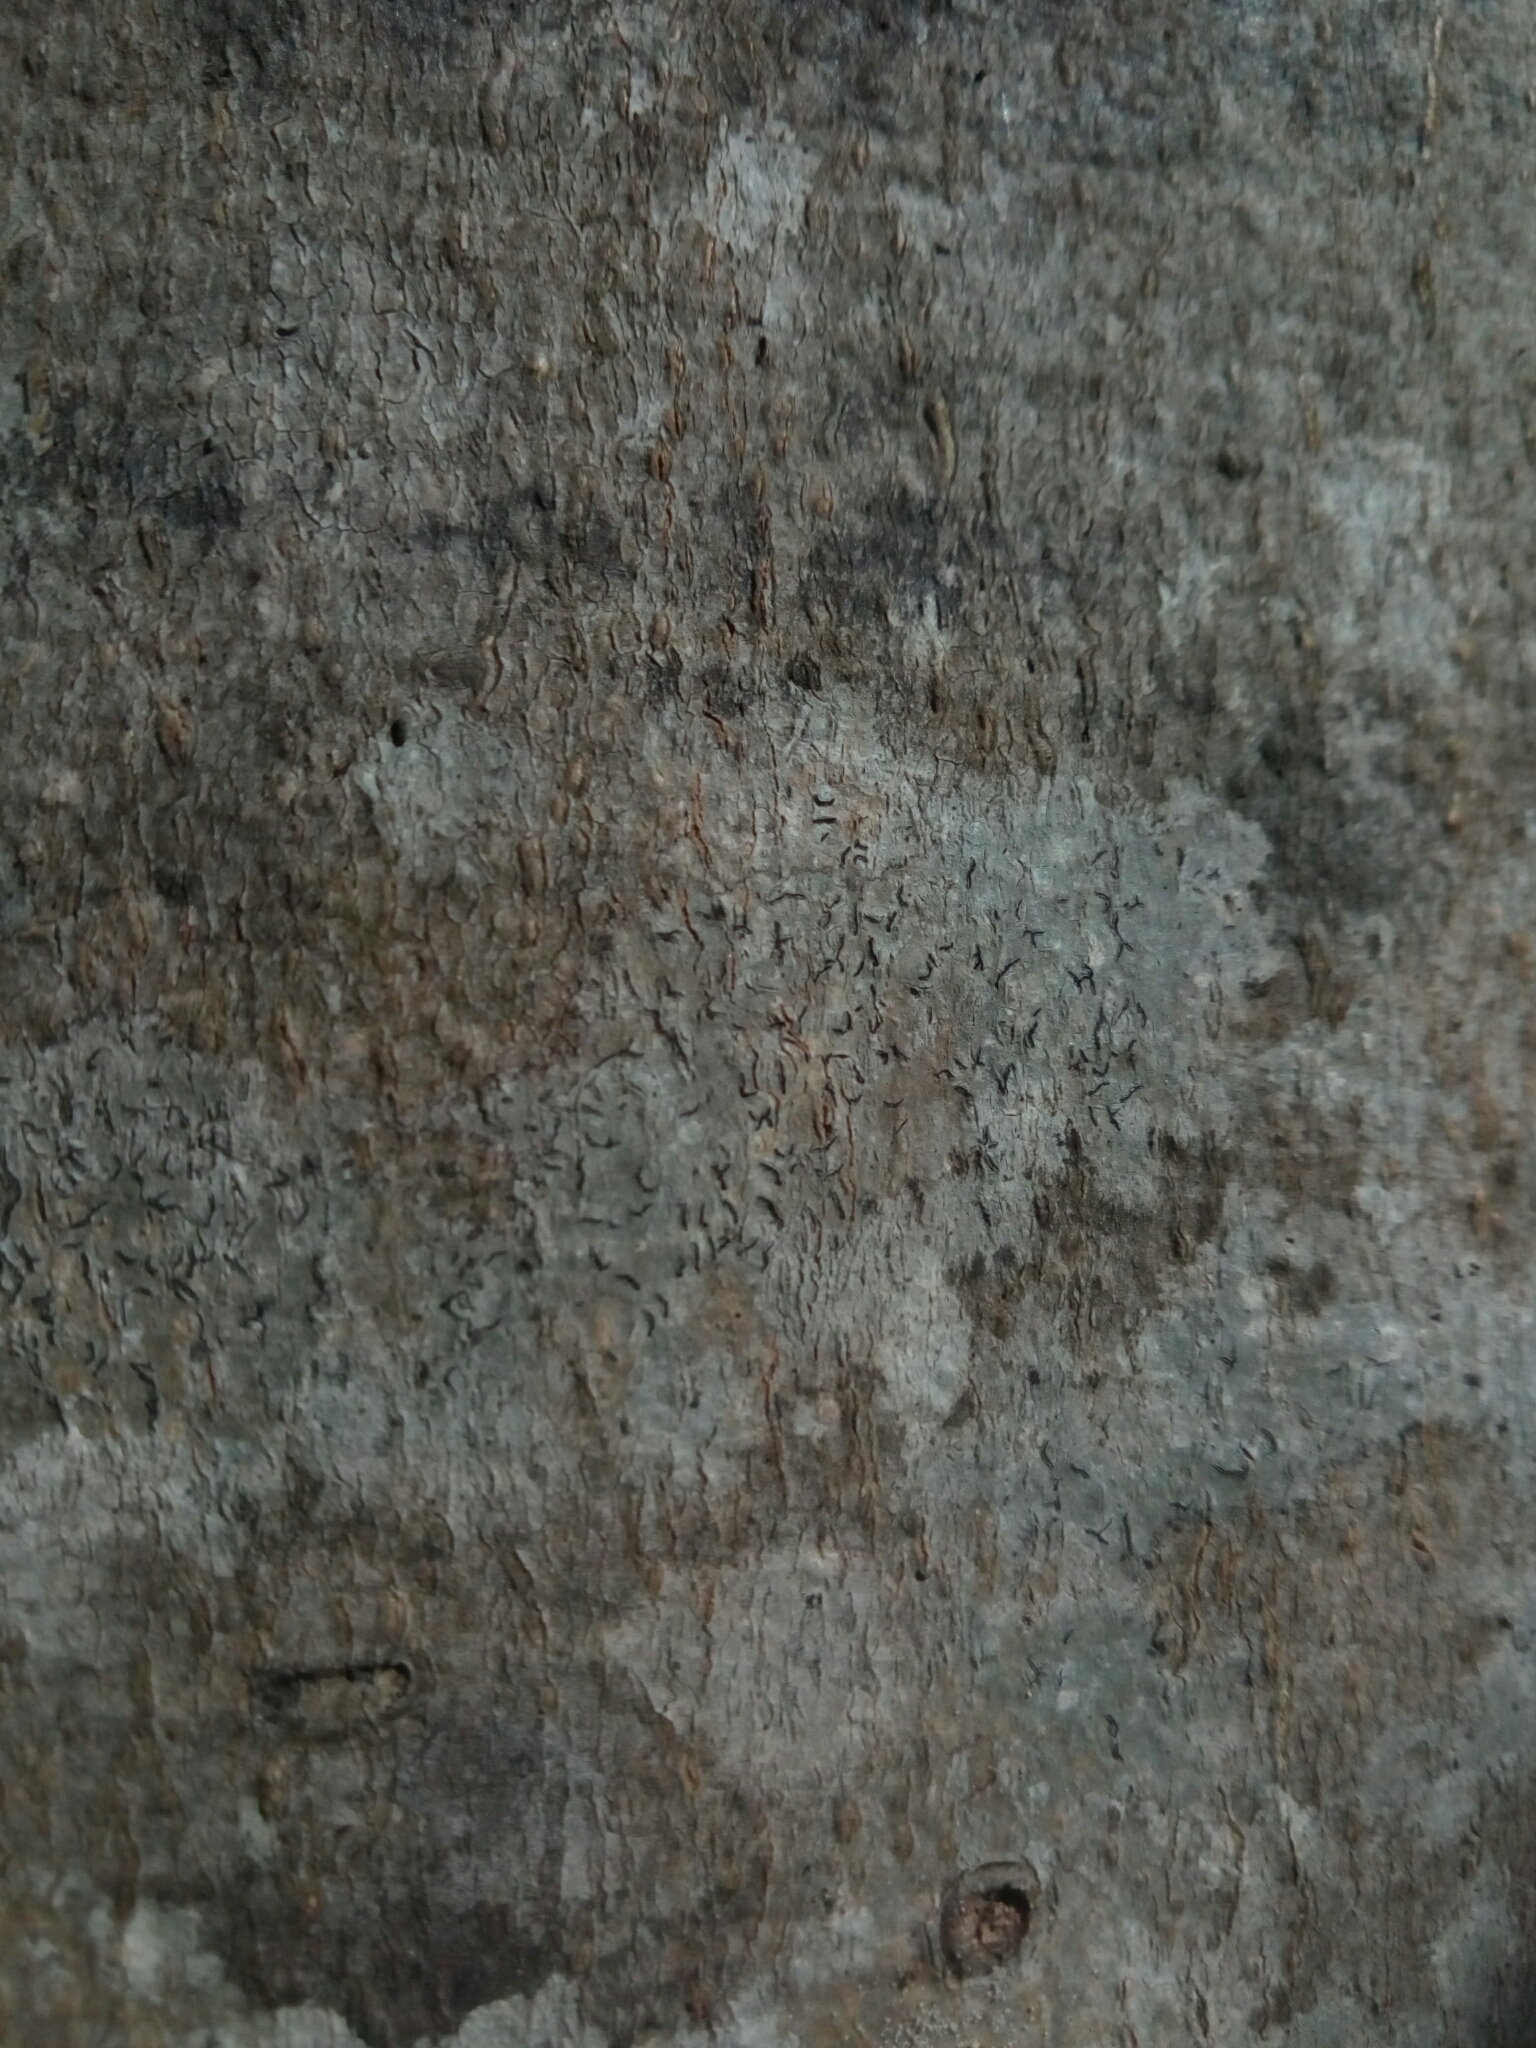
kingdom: Fungi
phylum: Ascomycota
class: Lecanoromycetes
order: Ostropales
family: Graphidaceae
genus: Graphis
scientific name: Graphis scripta
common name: Script lichen
